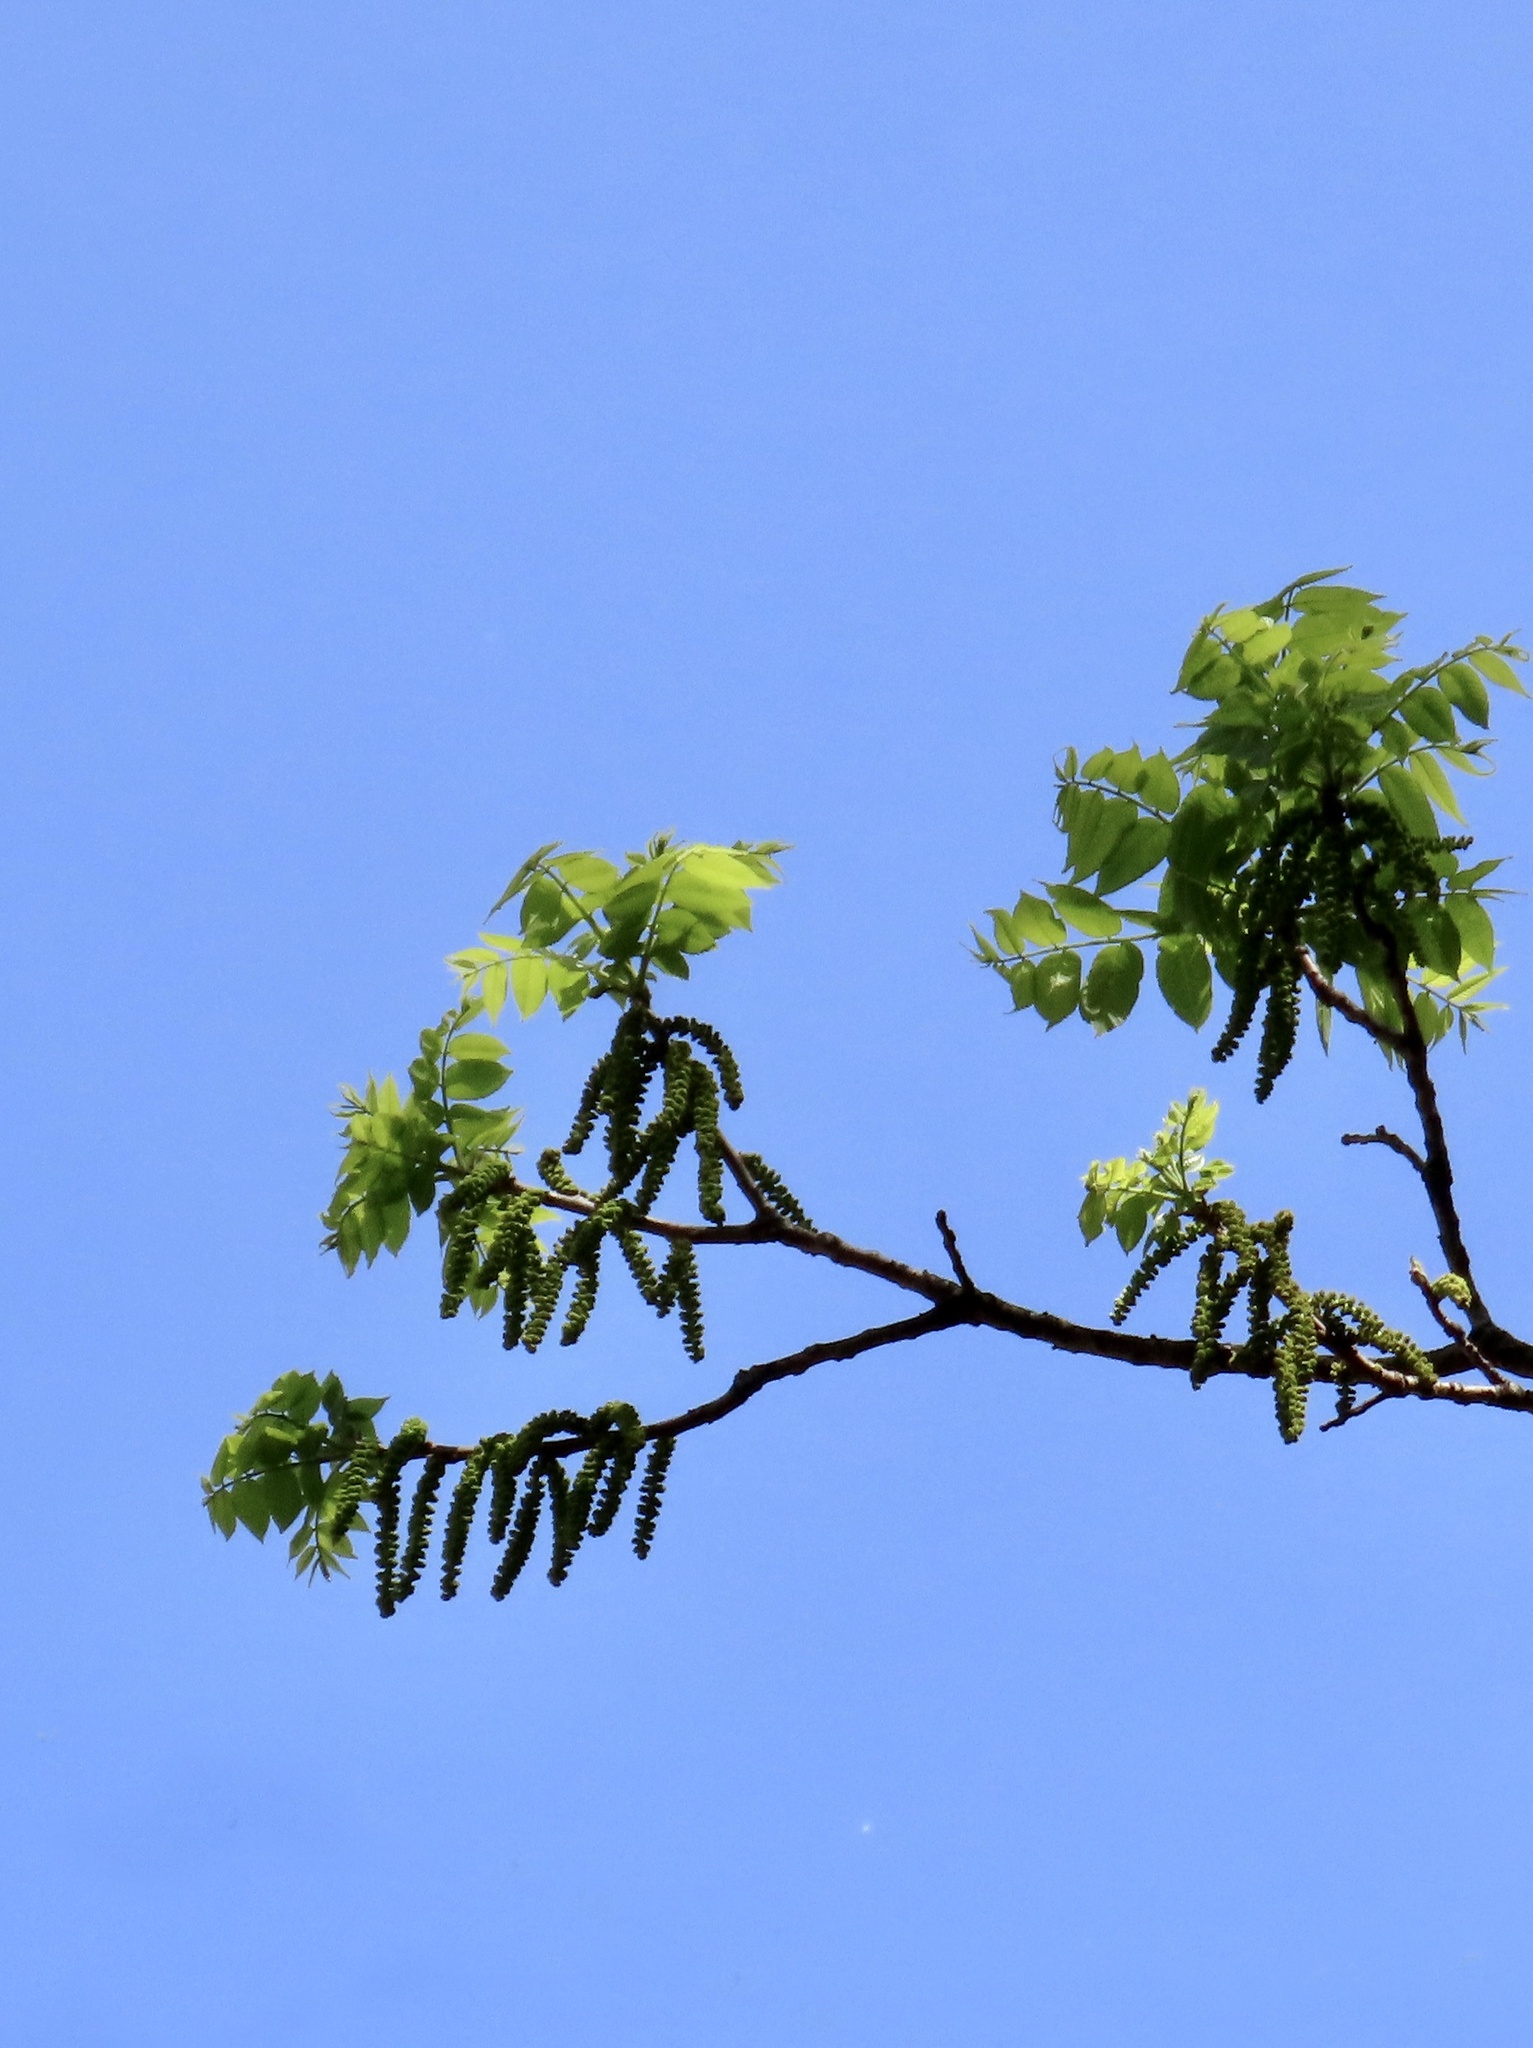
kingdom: Plantae
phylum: Tracheophyta
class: Magnoliopsida
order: Fagales
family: Juglandaceae
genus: Juglans
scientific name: Juglans nigra
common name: Black walnut
